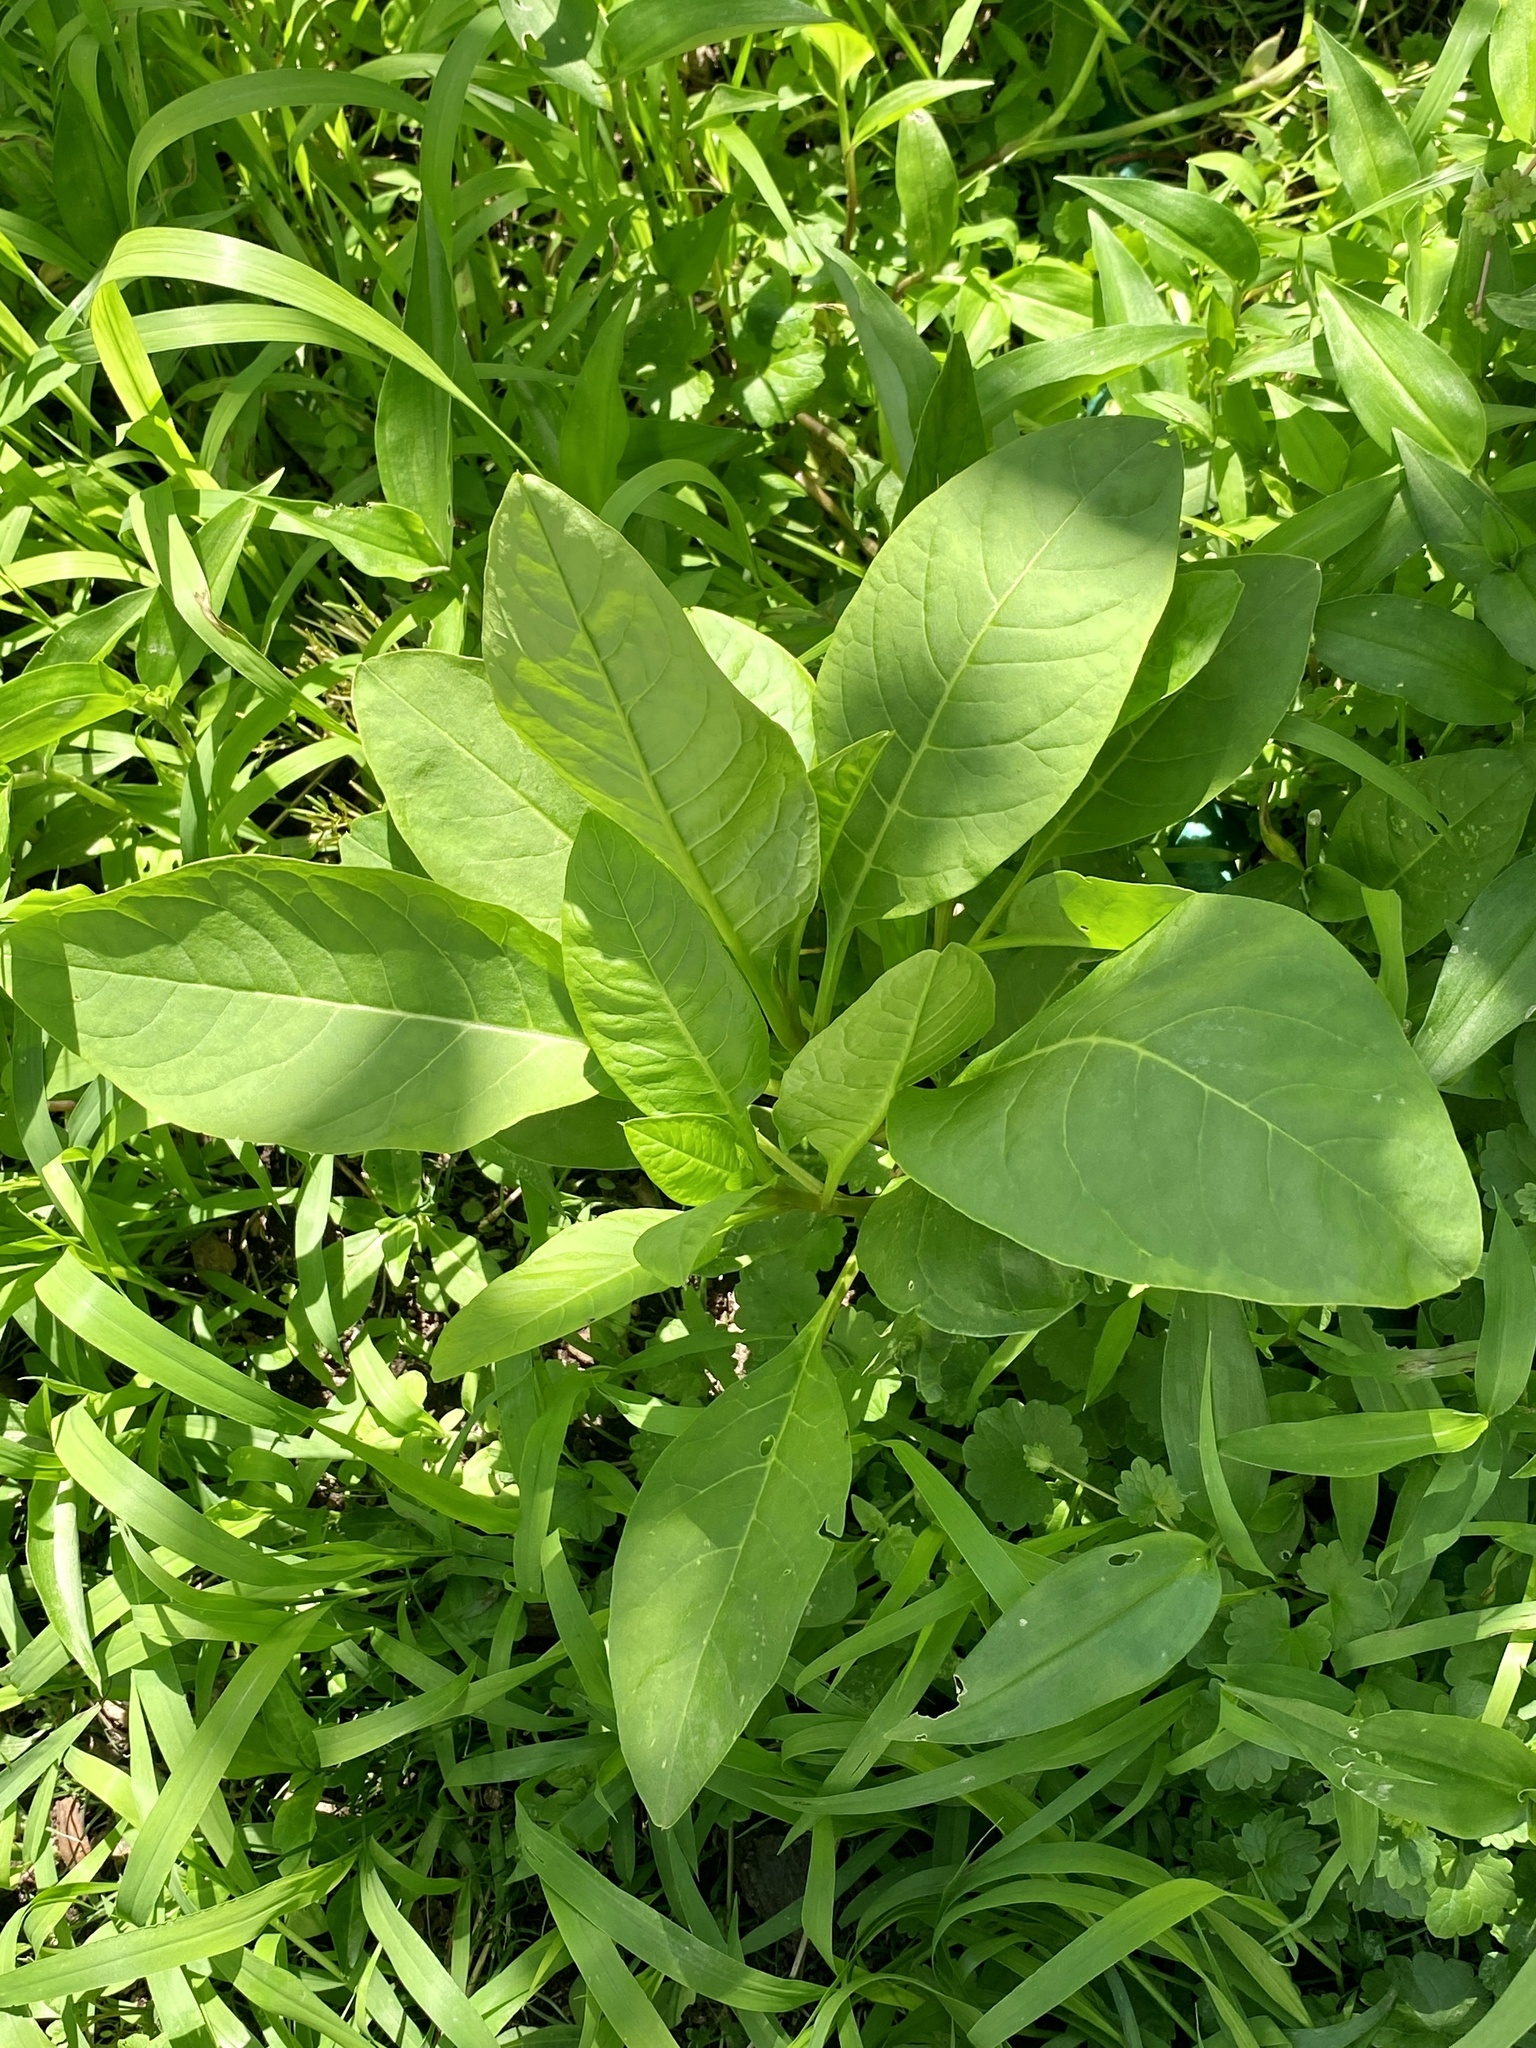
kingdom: Plantae
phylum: Tracheophyta
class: Magnoliopsida
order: Caryophyllales
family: Phytolaccaceae
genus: Phytolacca
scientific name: Phytolacca americana
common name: American pokeweed
